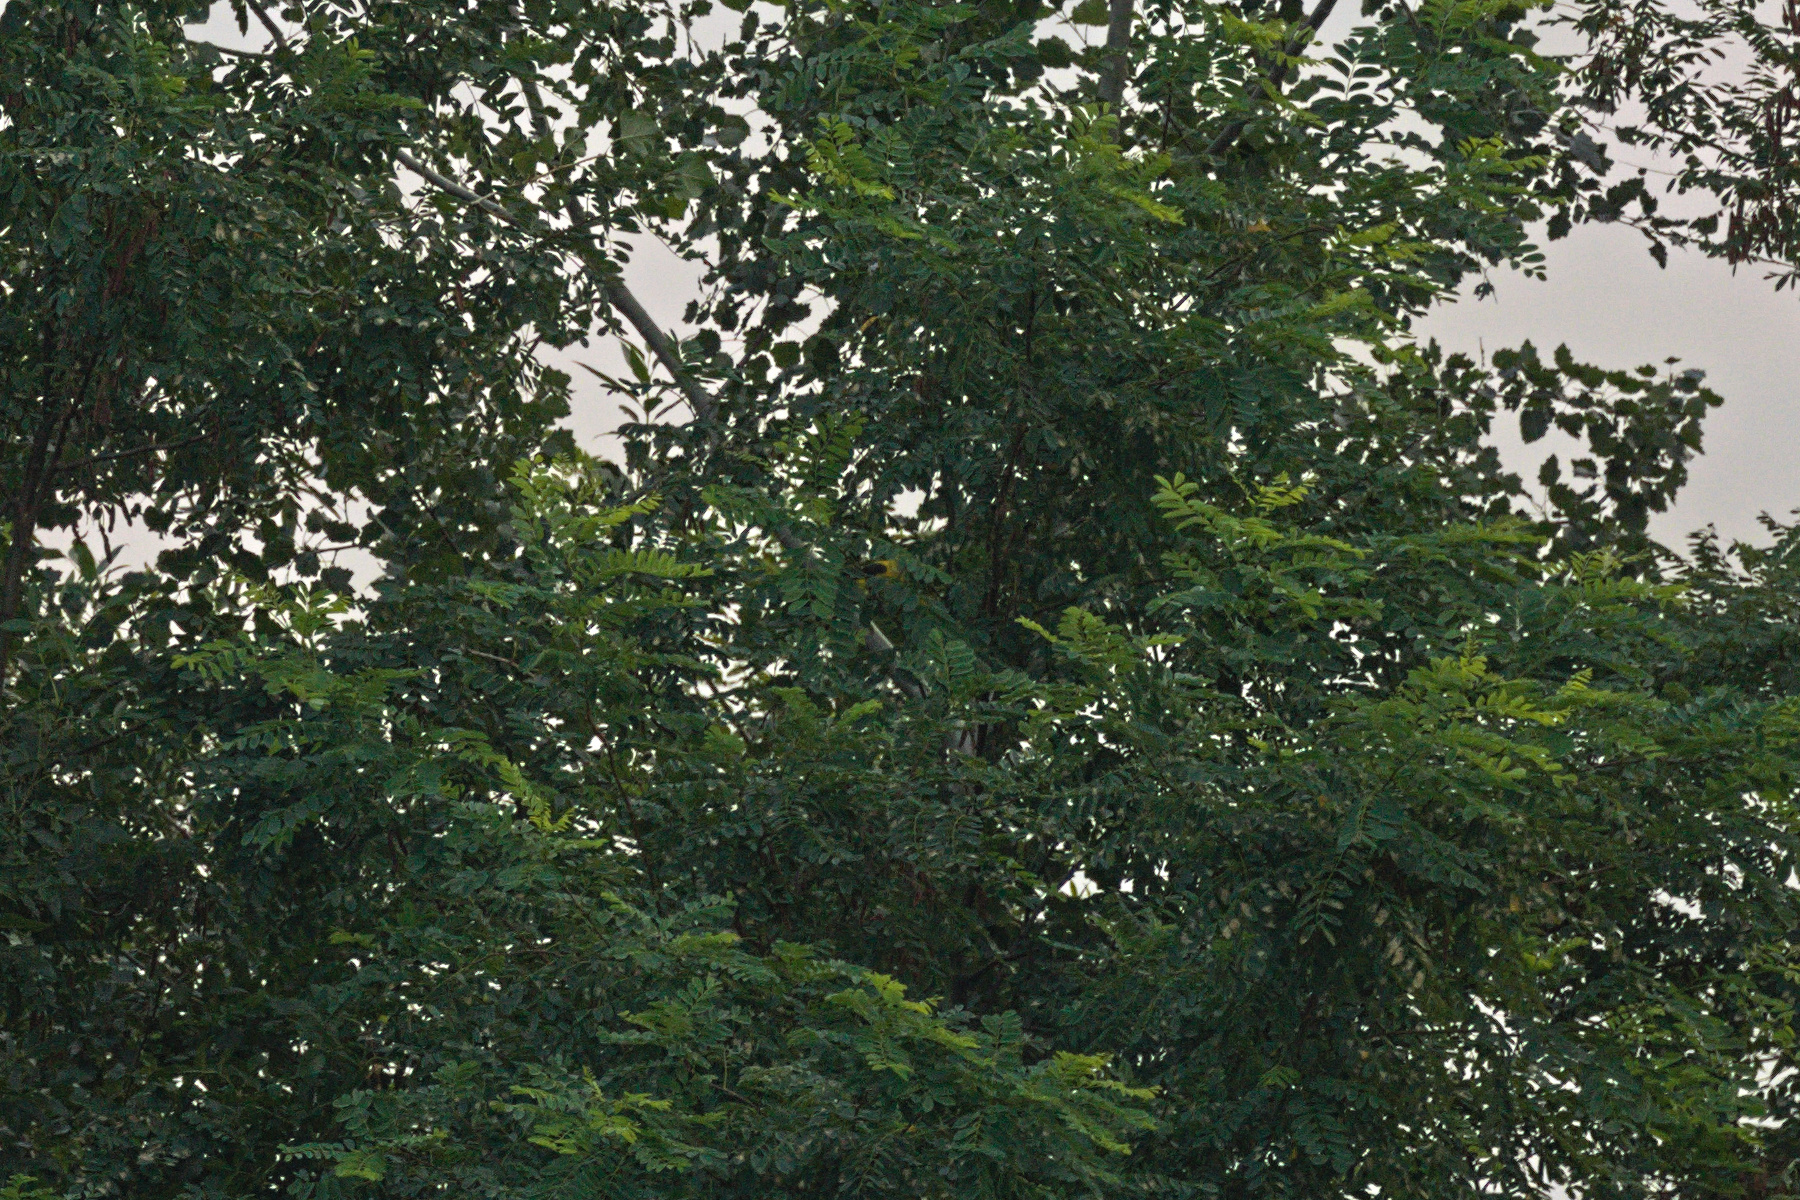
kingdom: Animalia
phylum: Chordata
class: Aves
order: Passeriformes
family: Oriolidae
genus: Oriolus
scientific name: Oriolus oriolus
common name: Eurasian golden oriole
